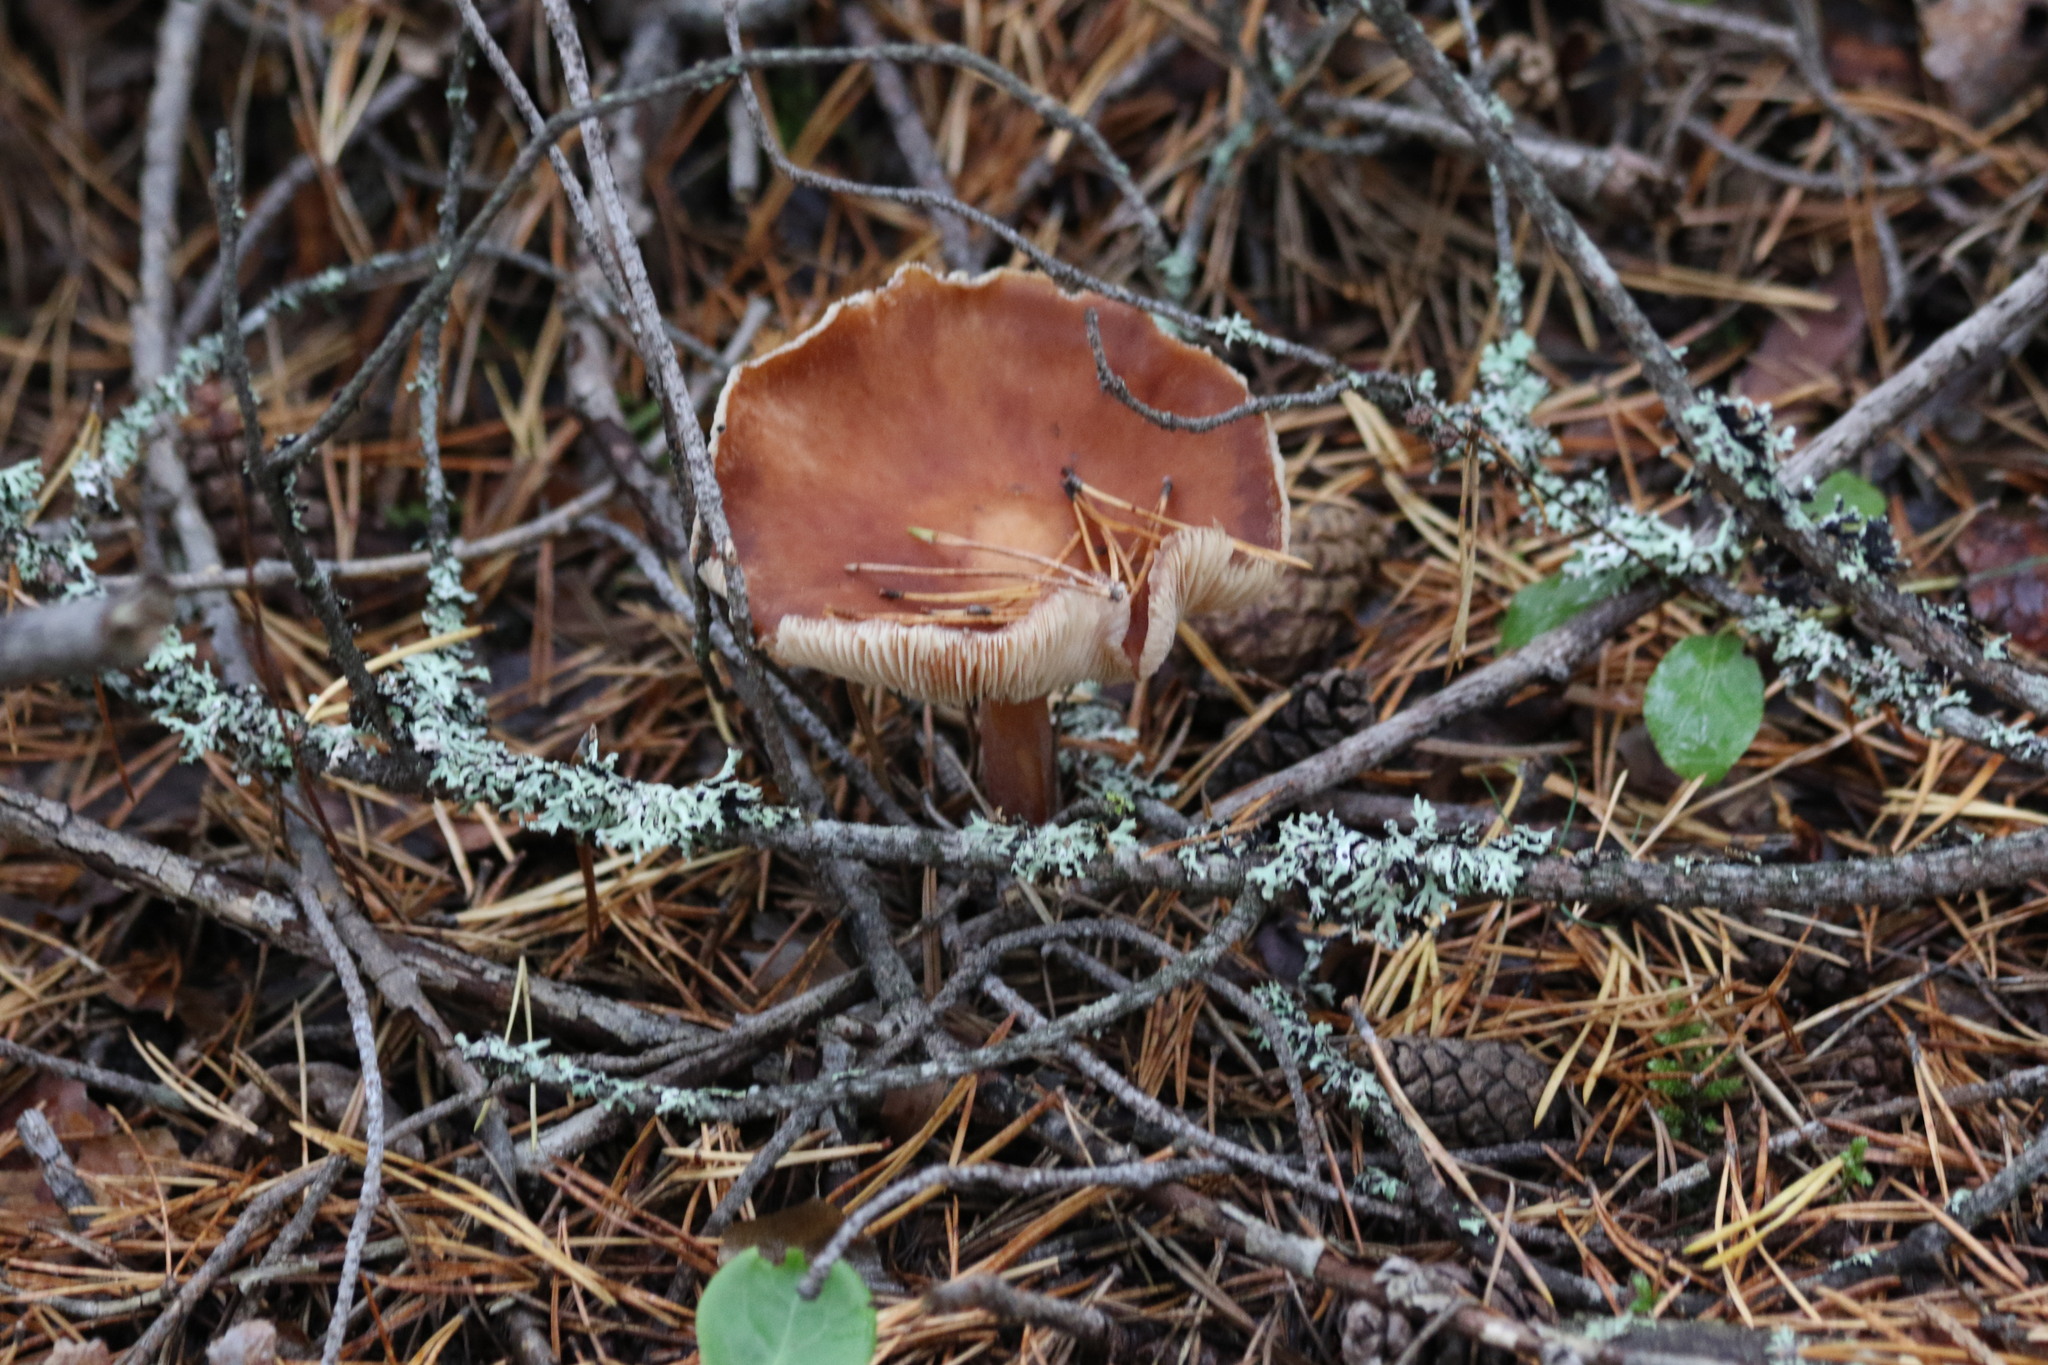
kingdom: Fungi
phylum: Basidiomycota
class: Agaricomycetes
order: Agaricales
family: Omphalotaceae
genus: Rhodocollybia
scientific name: Rhodocollybia butyracea
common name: Butter cap
